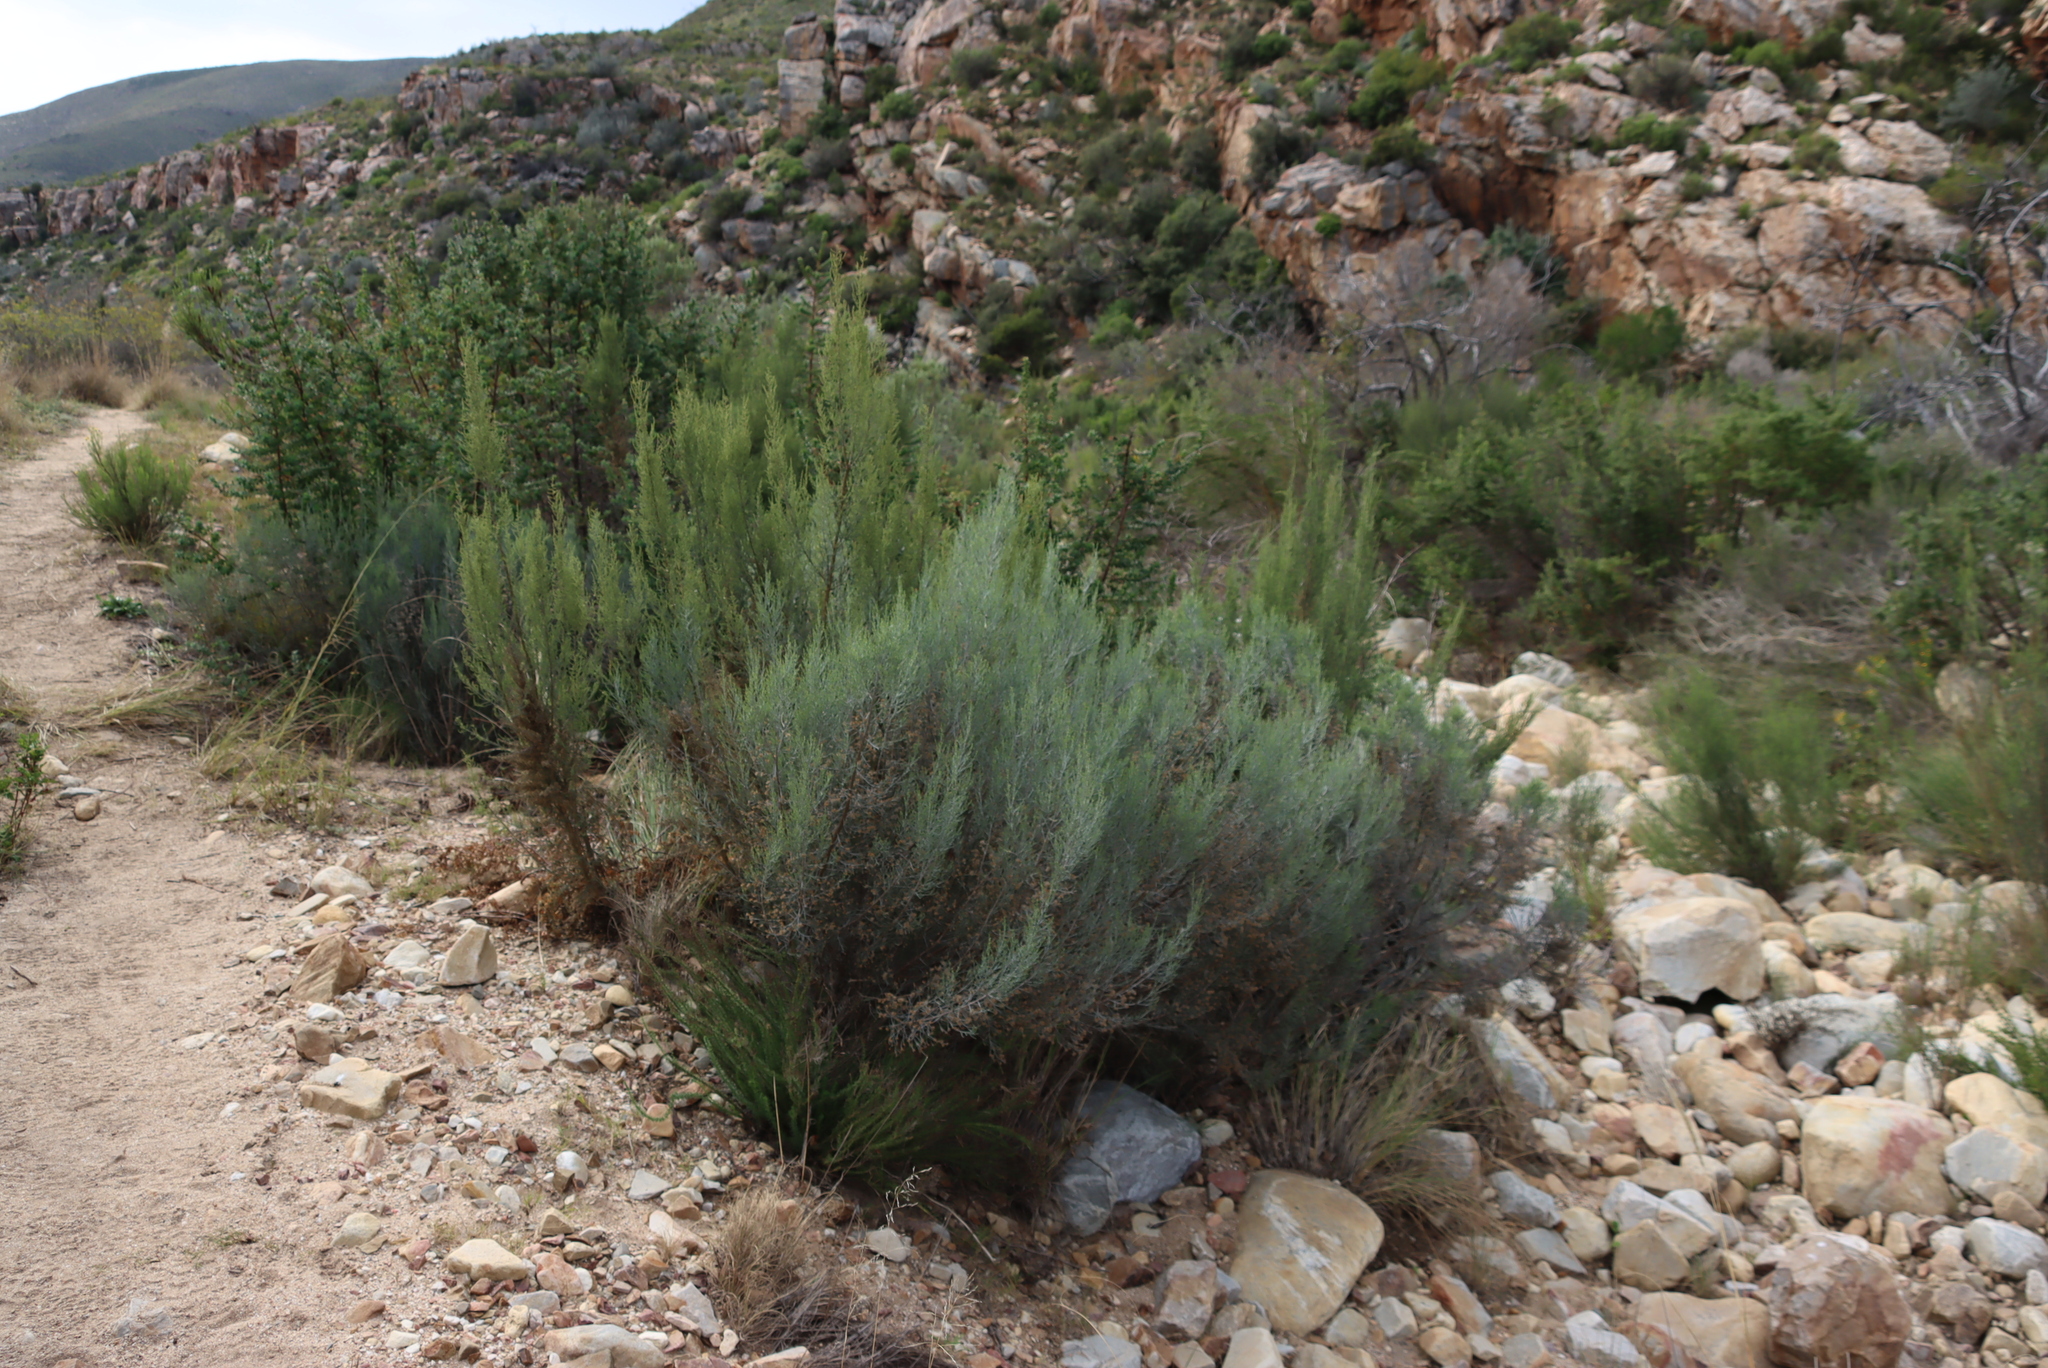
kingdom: Plantae
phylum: Tracheophyta
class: Magnoliopsida
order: Asterales
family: Asteraceae
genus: Dicerothamnus
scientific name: Dicerothamnus rhinocerotis
